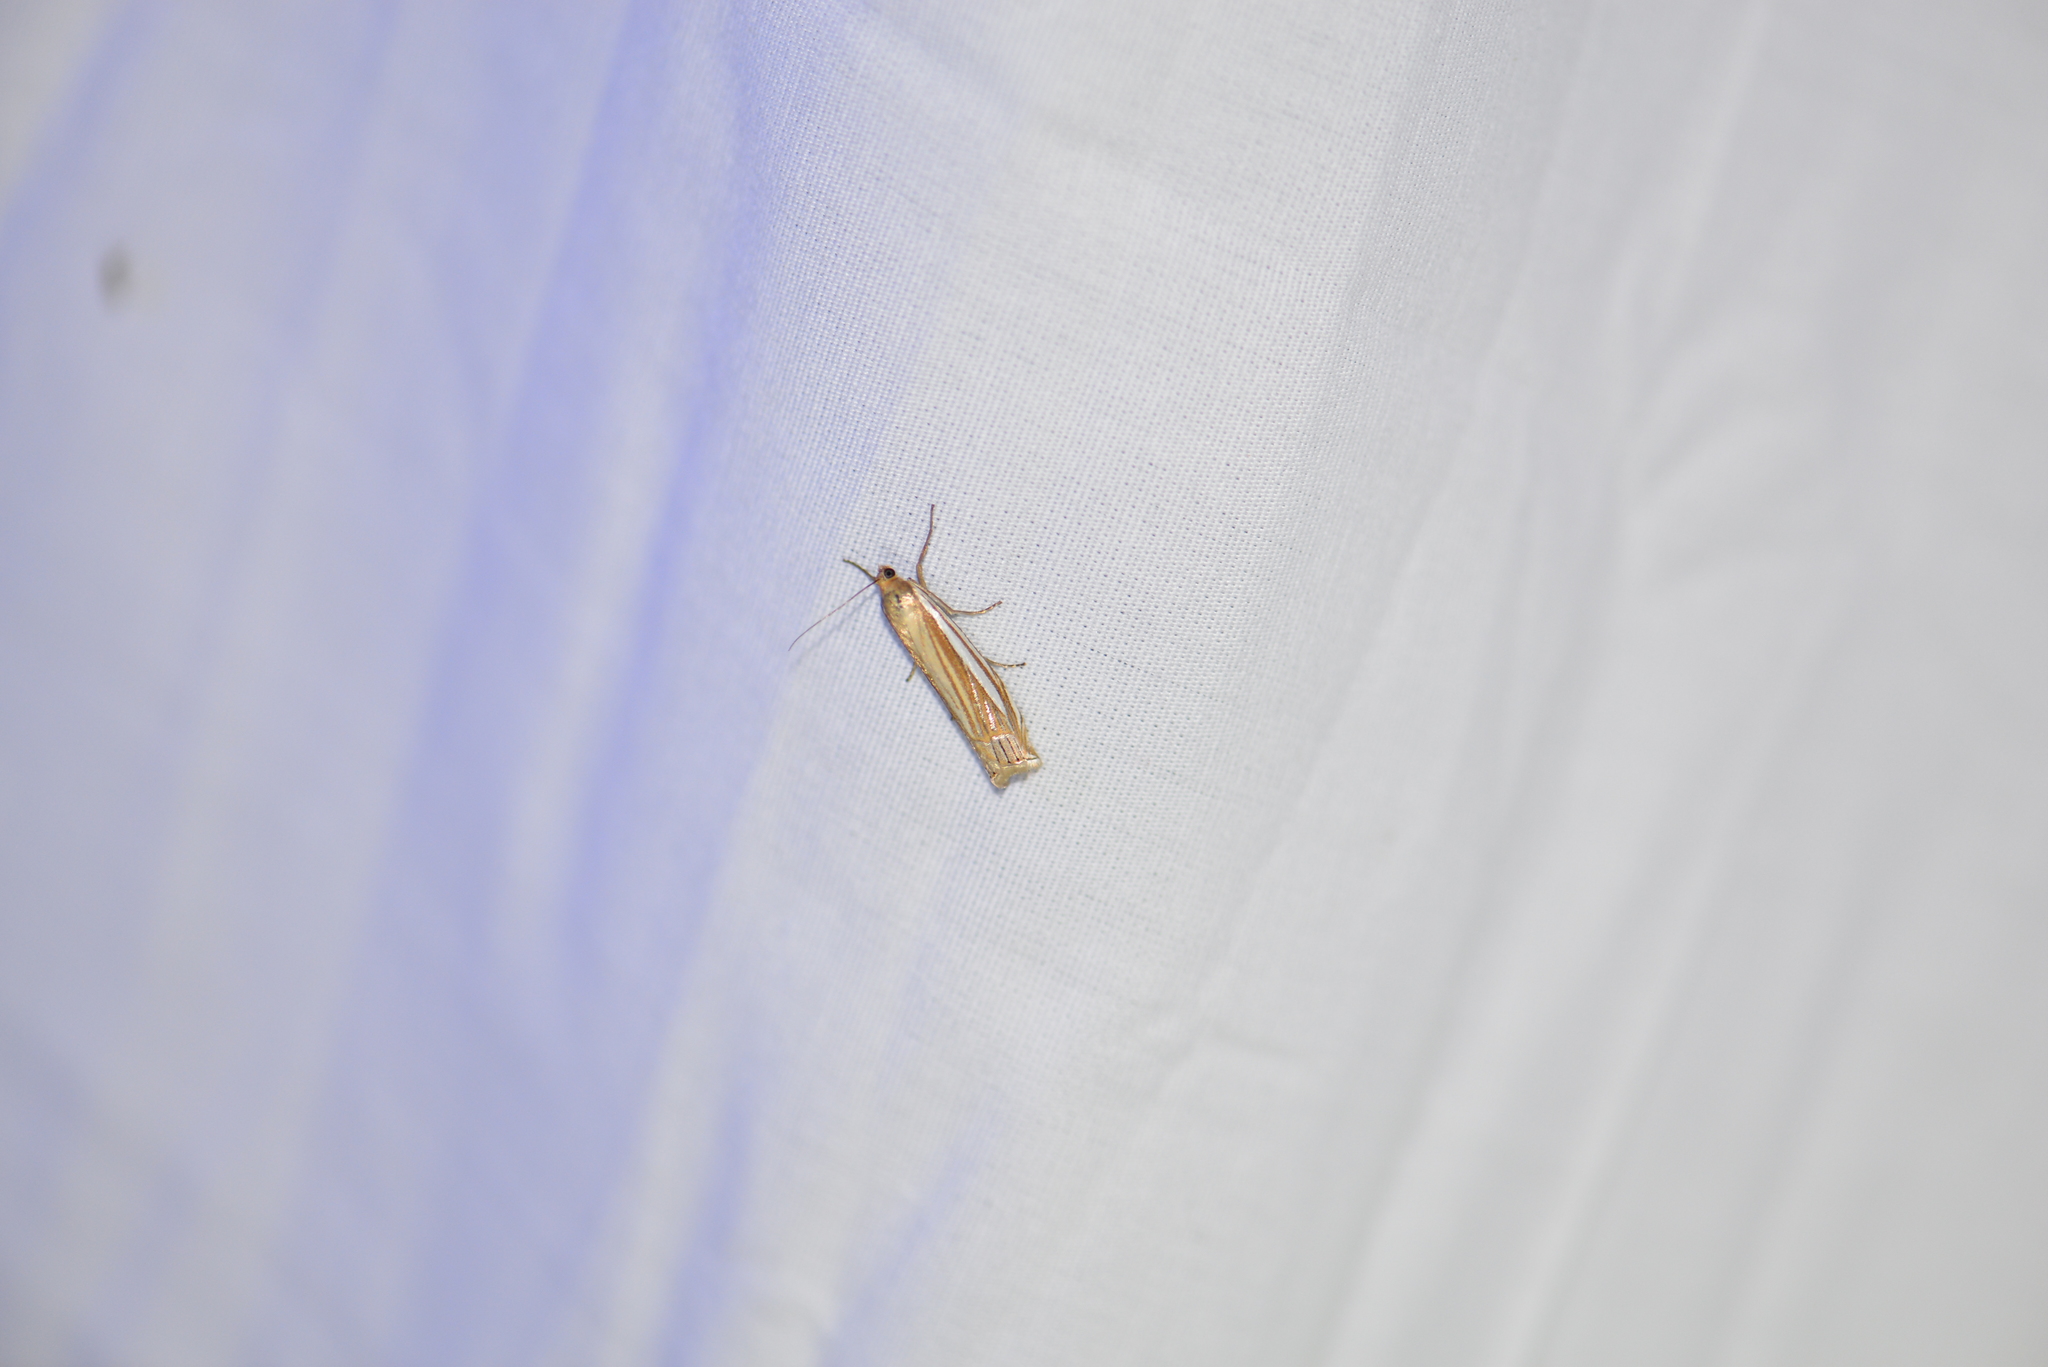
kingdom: Animalia
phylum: Arthropoda
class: Insecta
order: Lepidoptera
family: Crambidae
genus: Crambus
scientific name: Crambus laqueatellus
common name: Eastern grass-veneer
